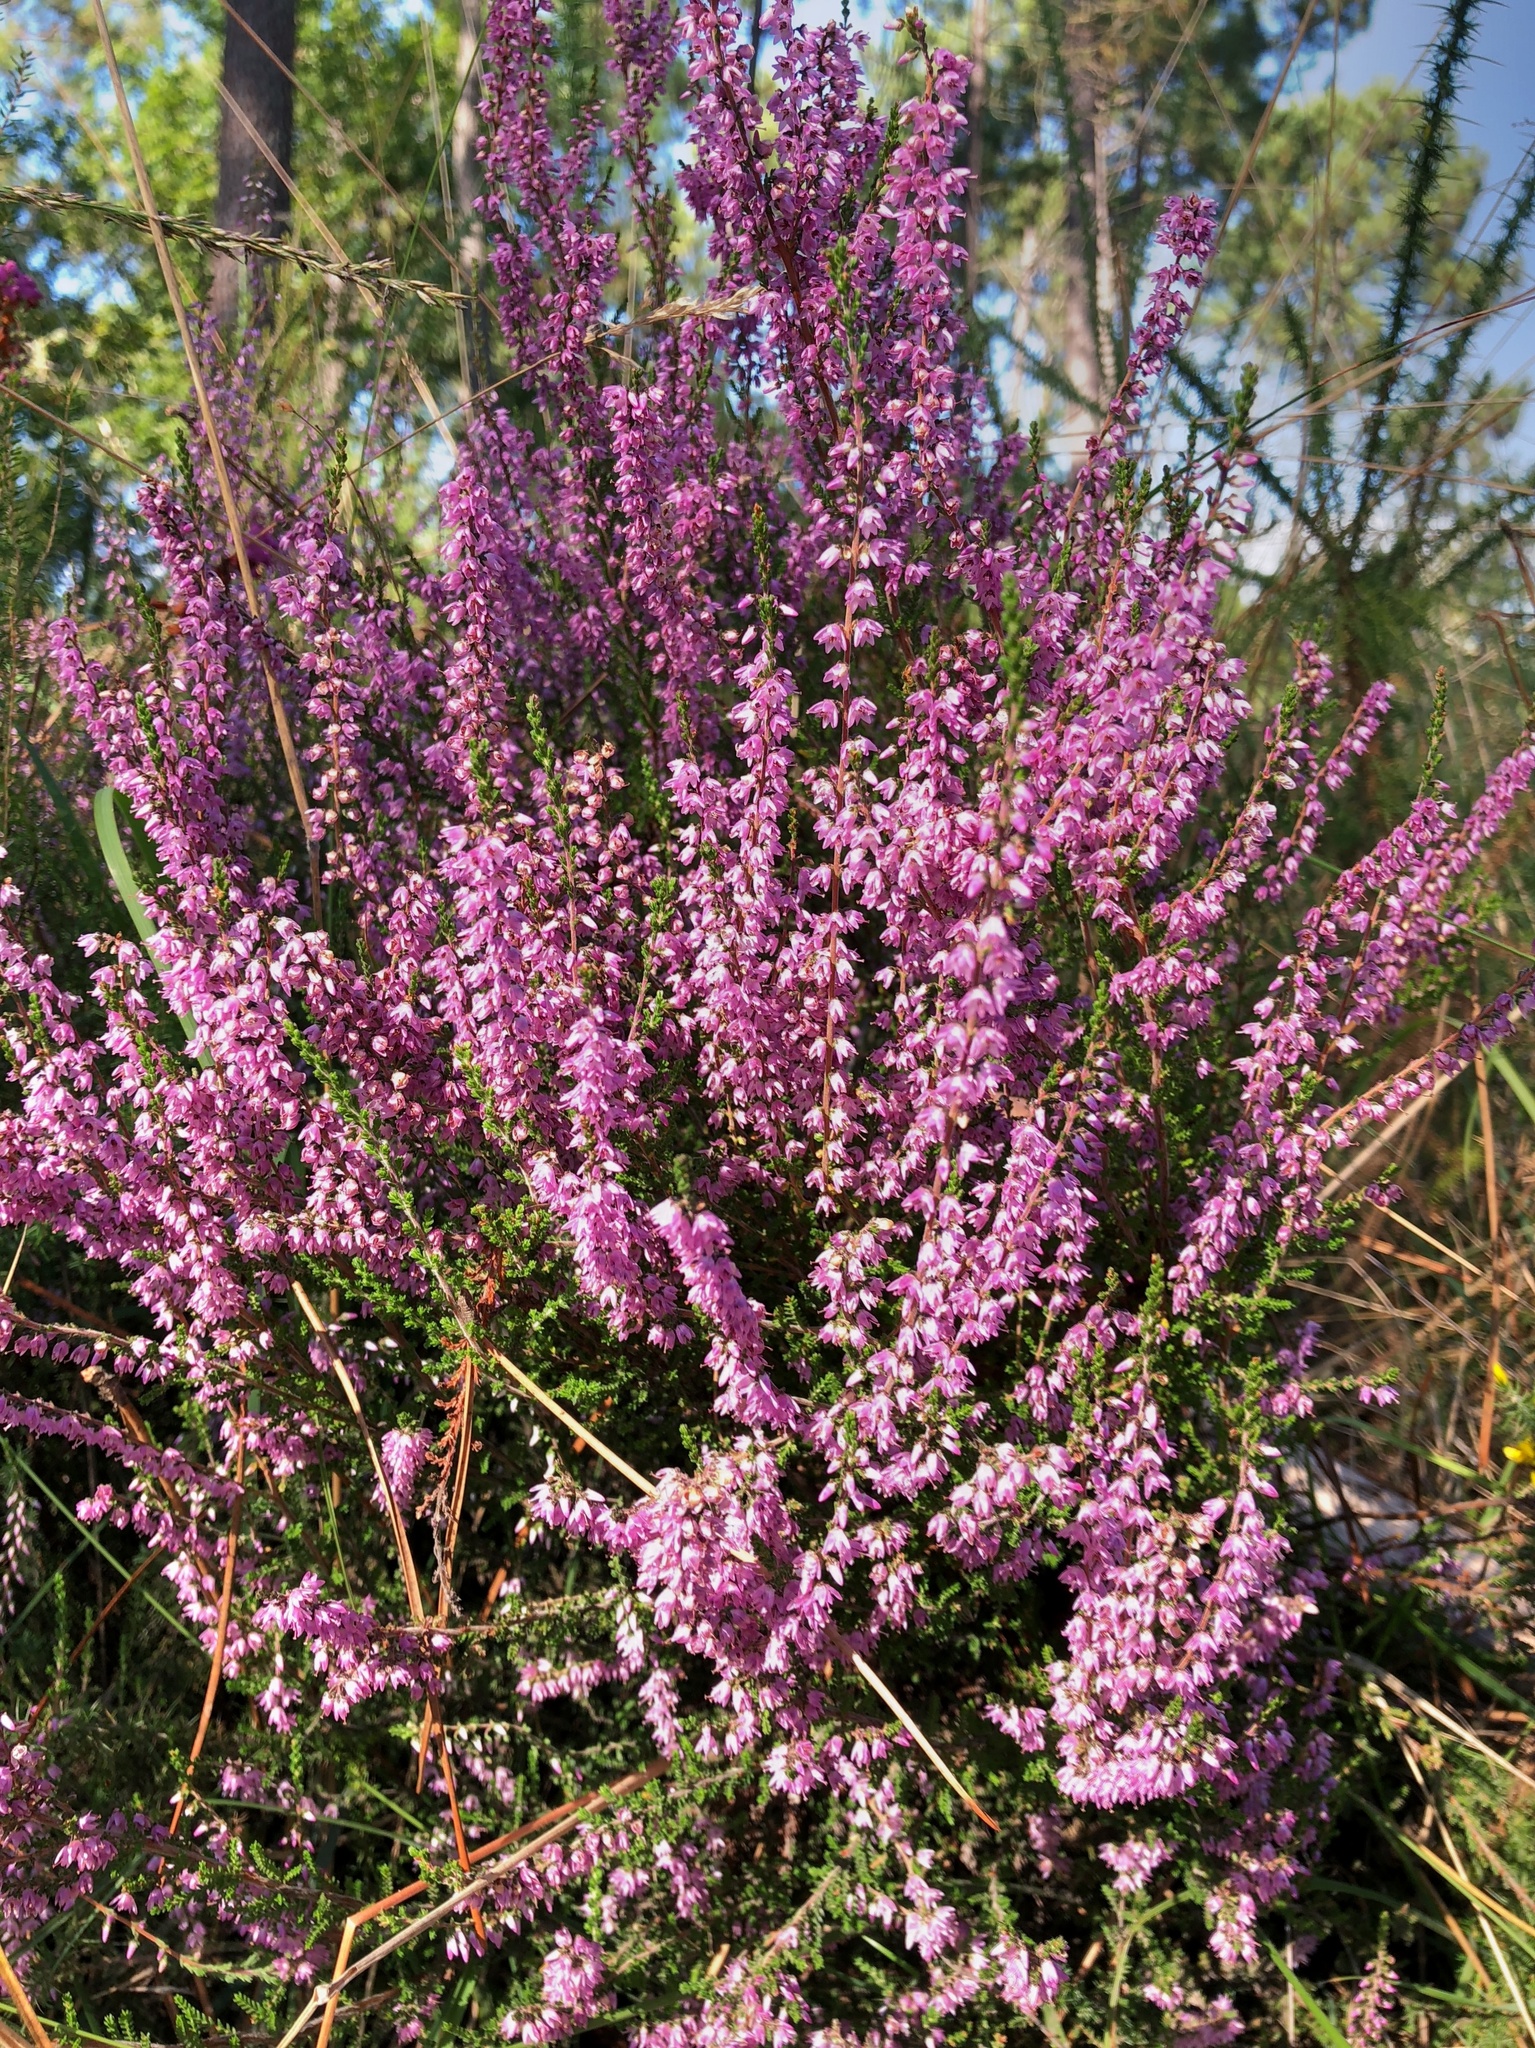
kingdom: Plantae
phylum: Tracheophyta
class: Magnoliopsida
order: Ericales
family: Ericaceae
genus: Calluna
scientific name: Calluna vulgaris
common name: Heather
